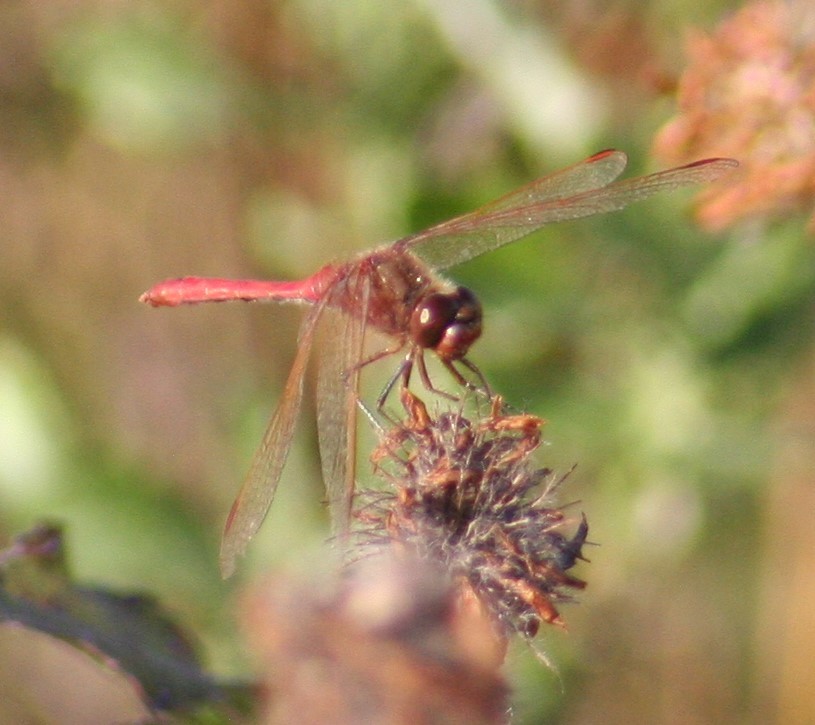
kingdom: Animalia
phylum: Arthropoda
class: Insecta
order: Odonata
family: Libellulidae
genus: Sympetrum
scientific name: Sympetrum costiferum
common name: Saffron-winged meadowhawk
